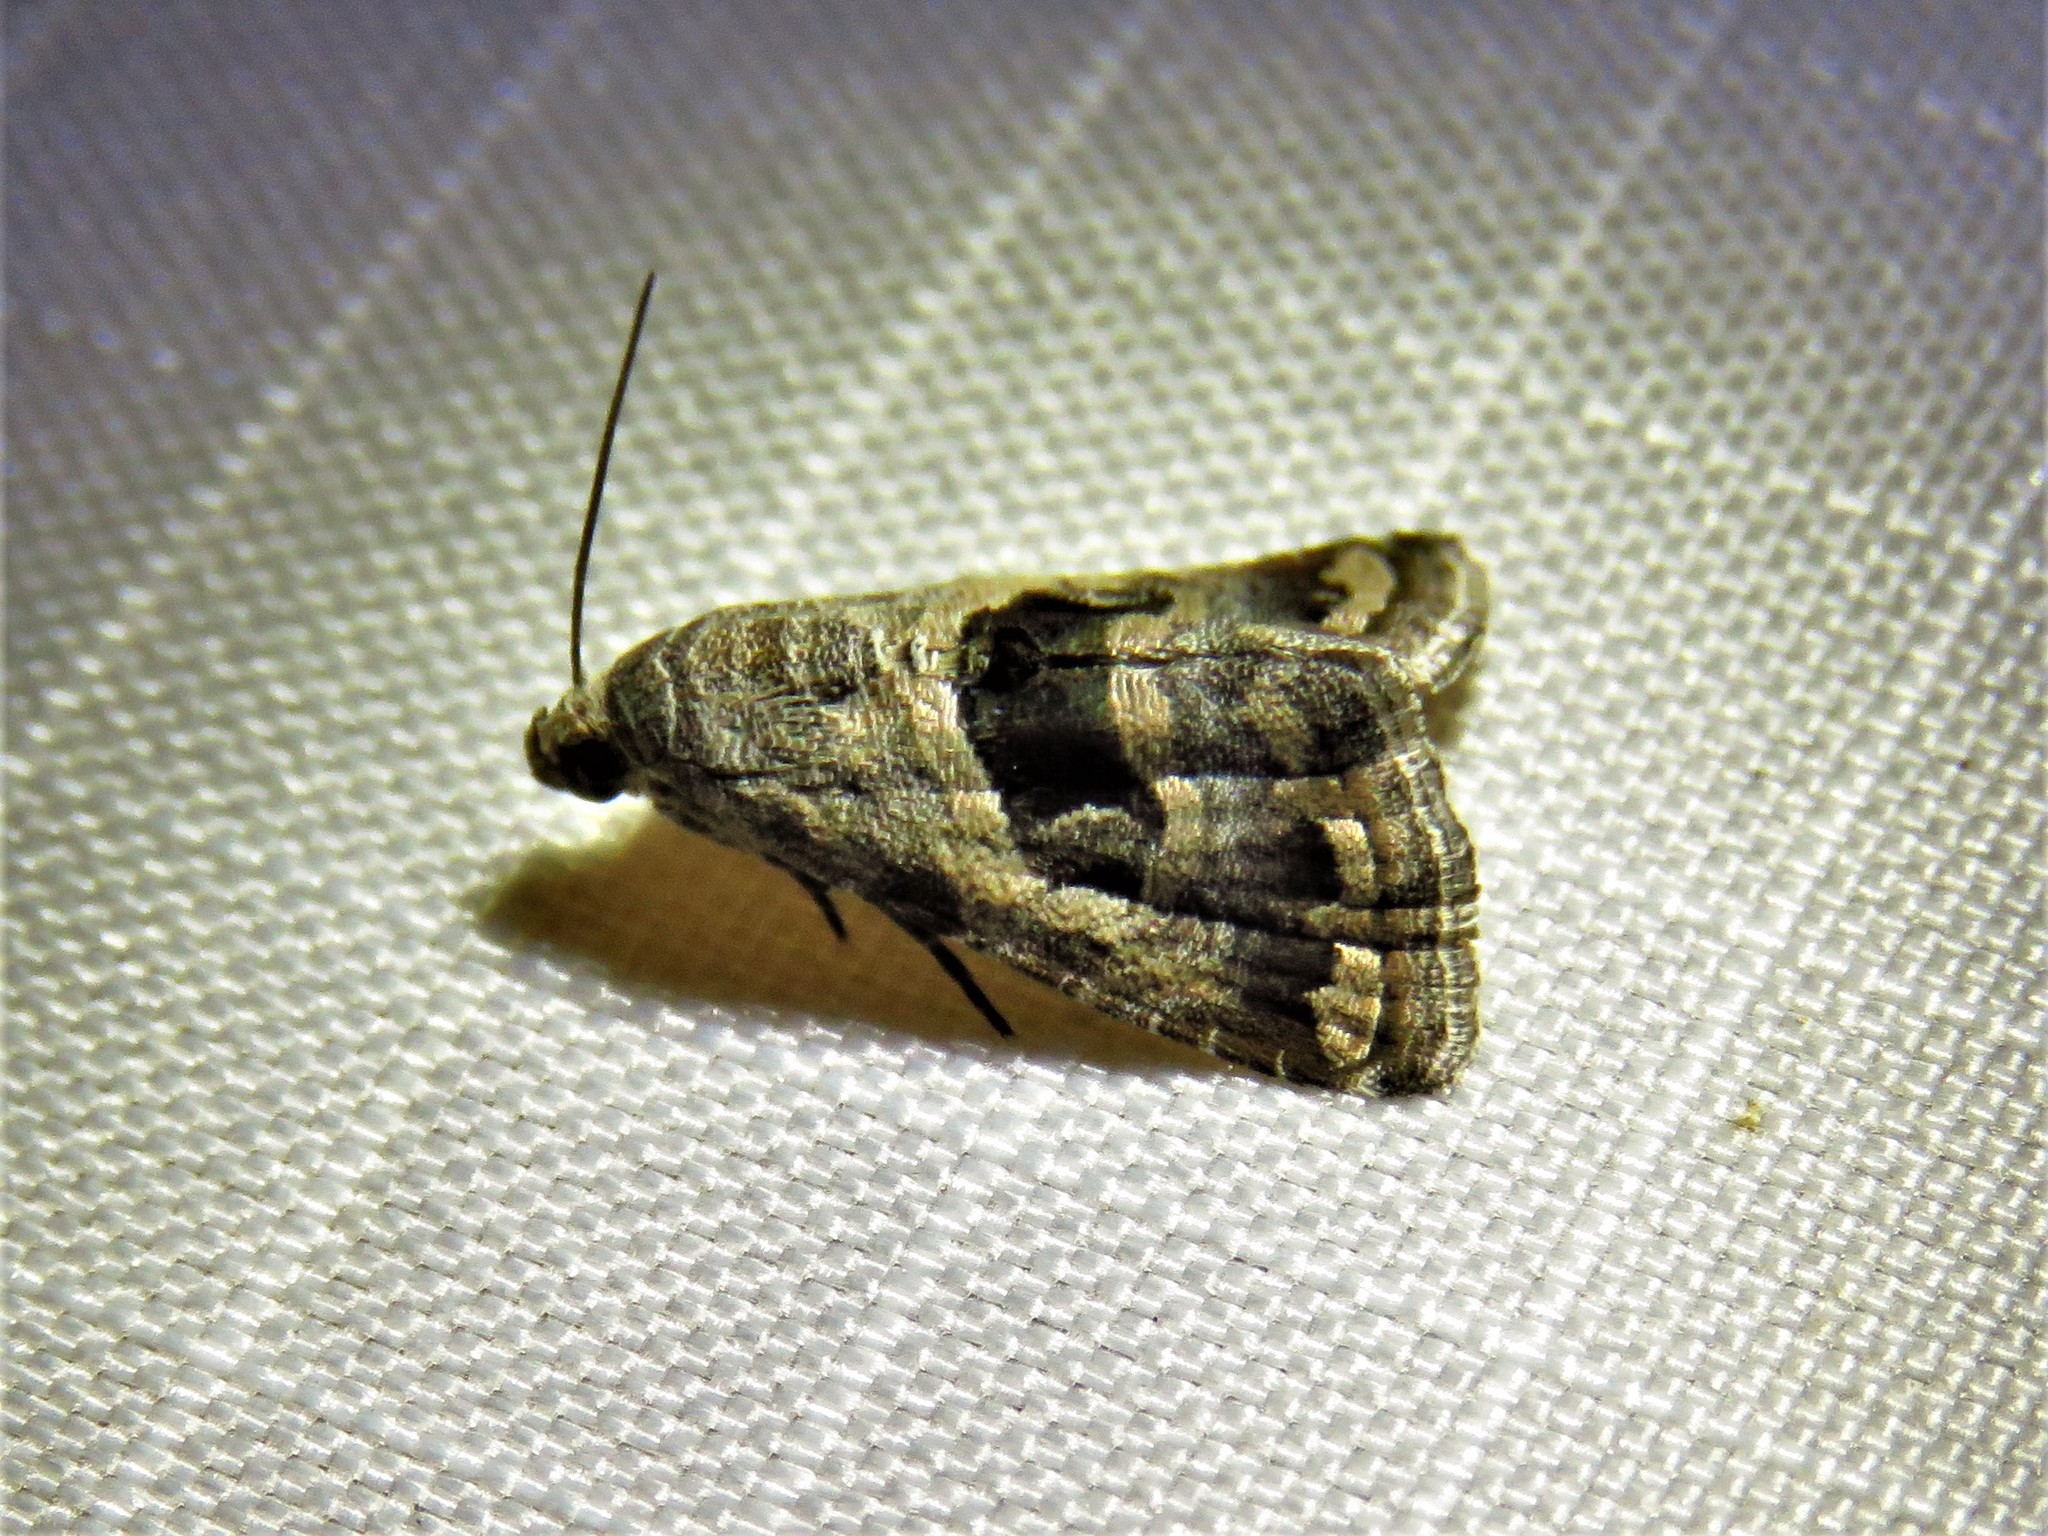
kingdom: Animalia
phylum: Arthropoda
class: Insecta
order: Lepidoptera
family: Noctuidae
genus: Tripudia
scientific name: Tripudia quadrifera
